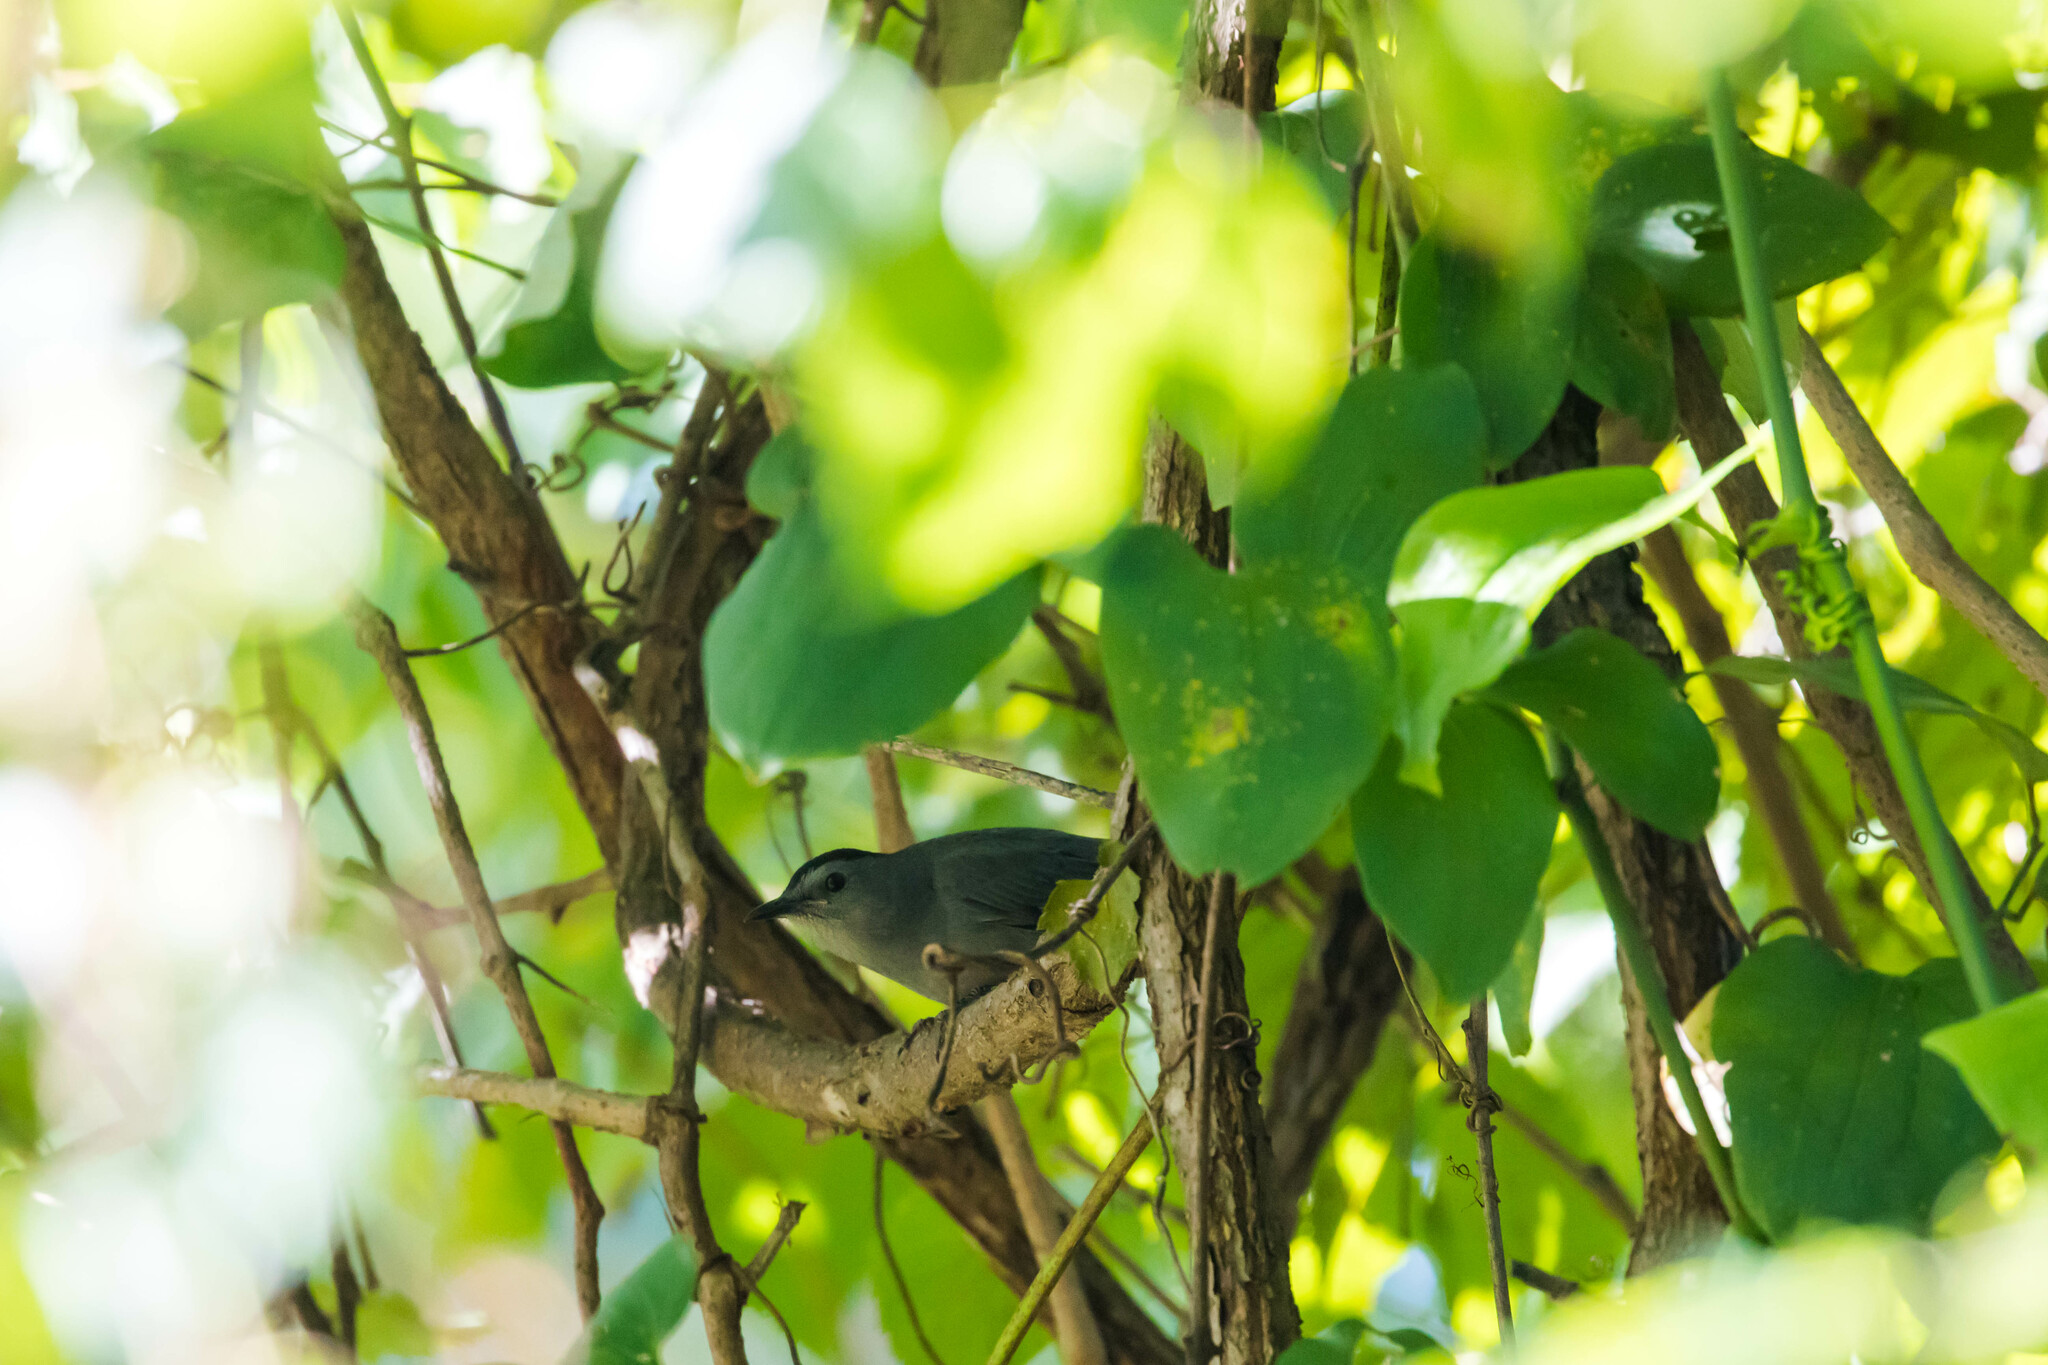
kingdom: Animalia
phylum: Chordata
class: Aves
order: Passeriformes
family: Mimidae
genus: Dumetella
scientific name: Dumetella carolinensis
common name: Gray catbird
